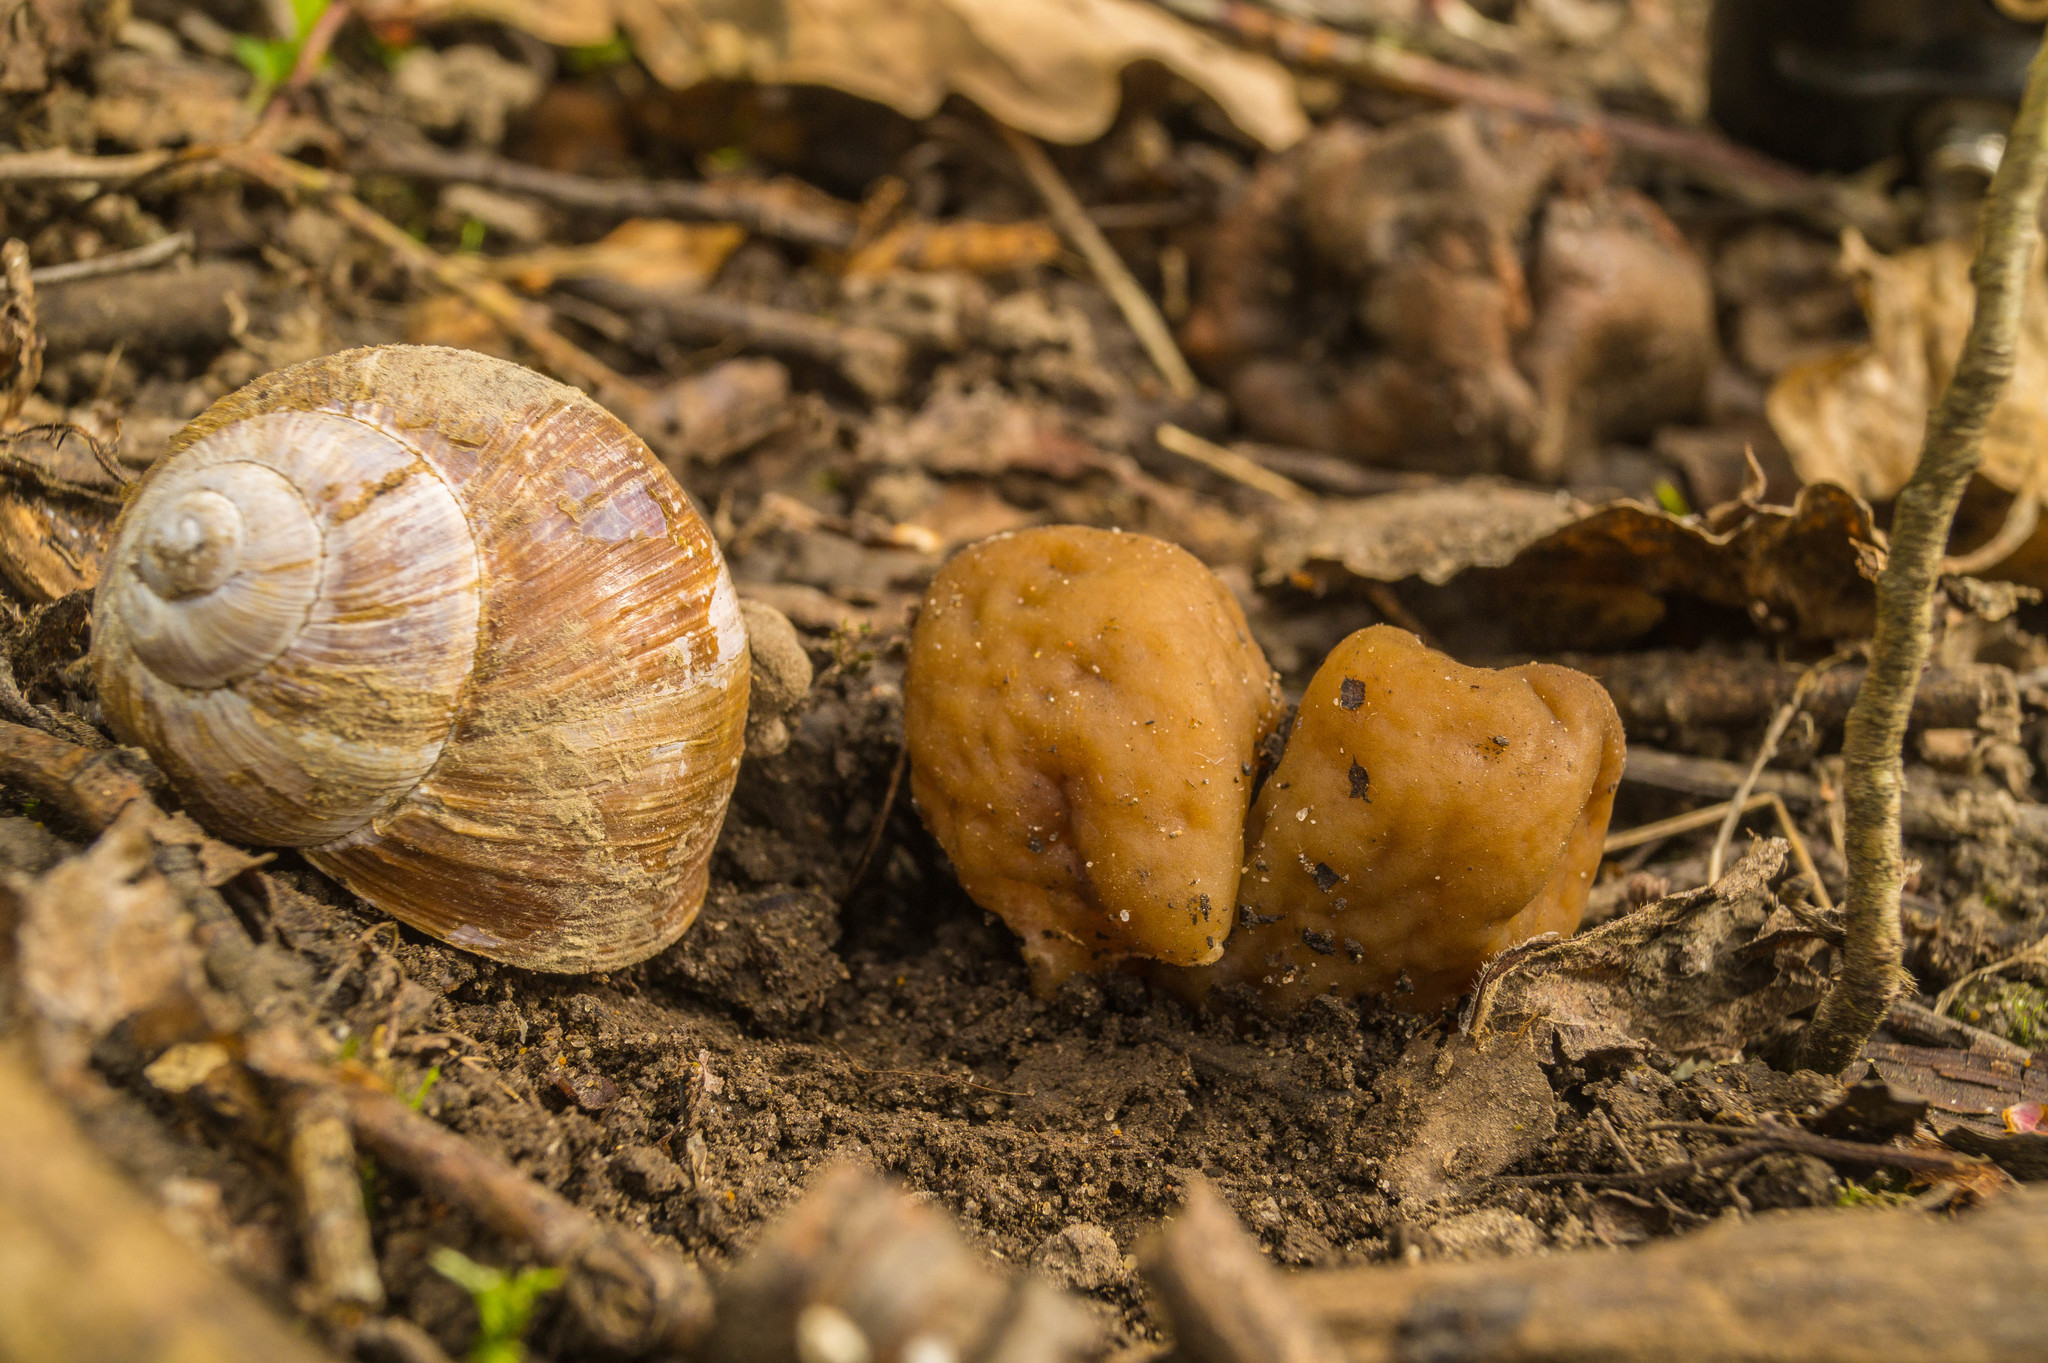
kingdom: Fungi
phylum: Ascomycota
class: Pezizomycetes
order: Pezizales
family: Morchellaceae
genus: Verpa
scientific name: Verpa conica
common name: Thimble morel
